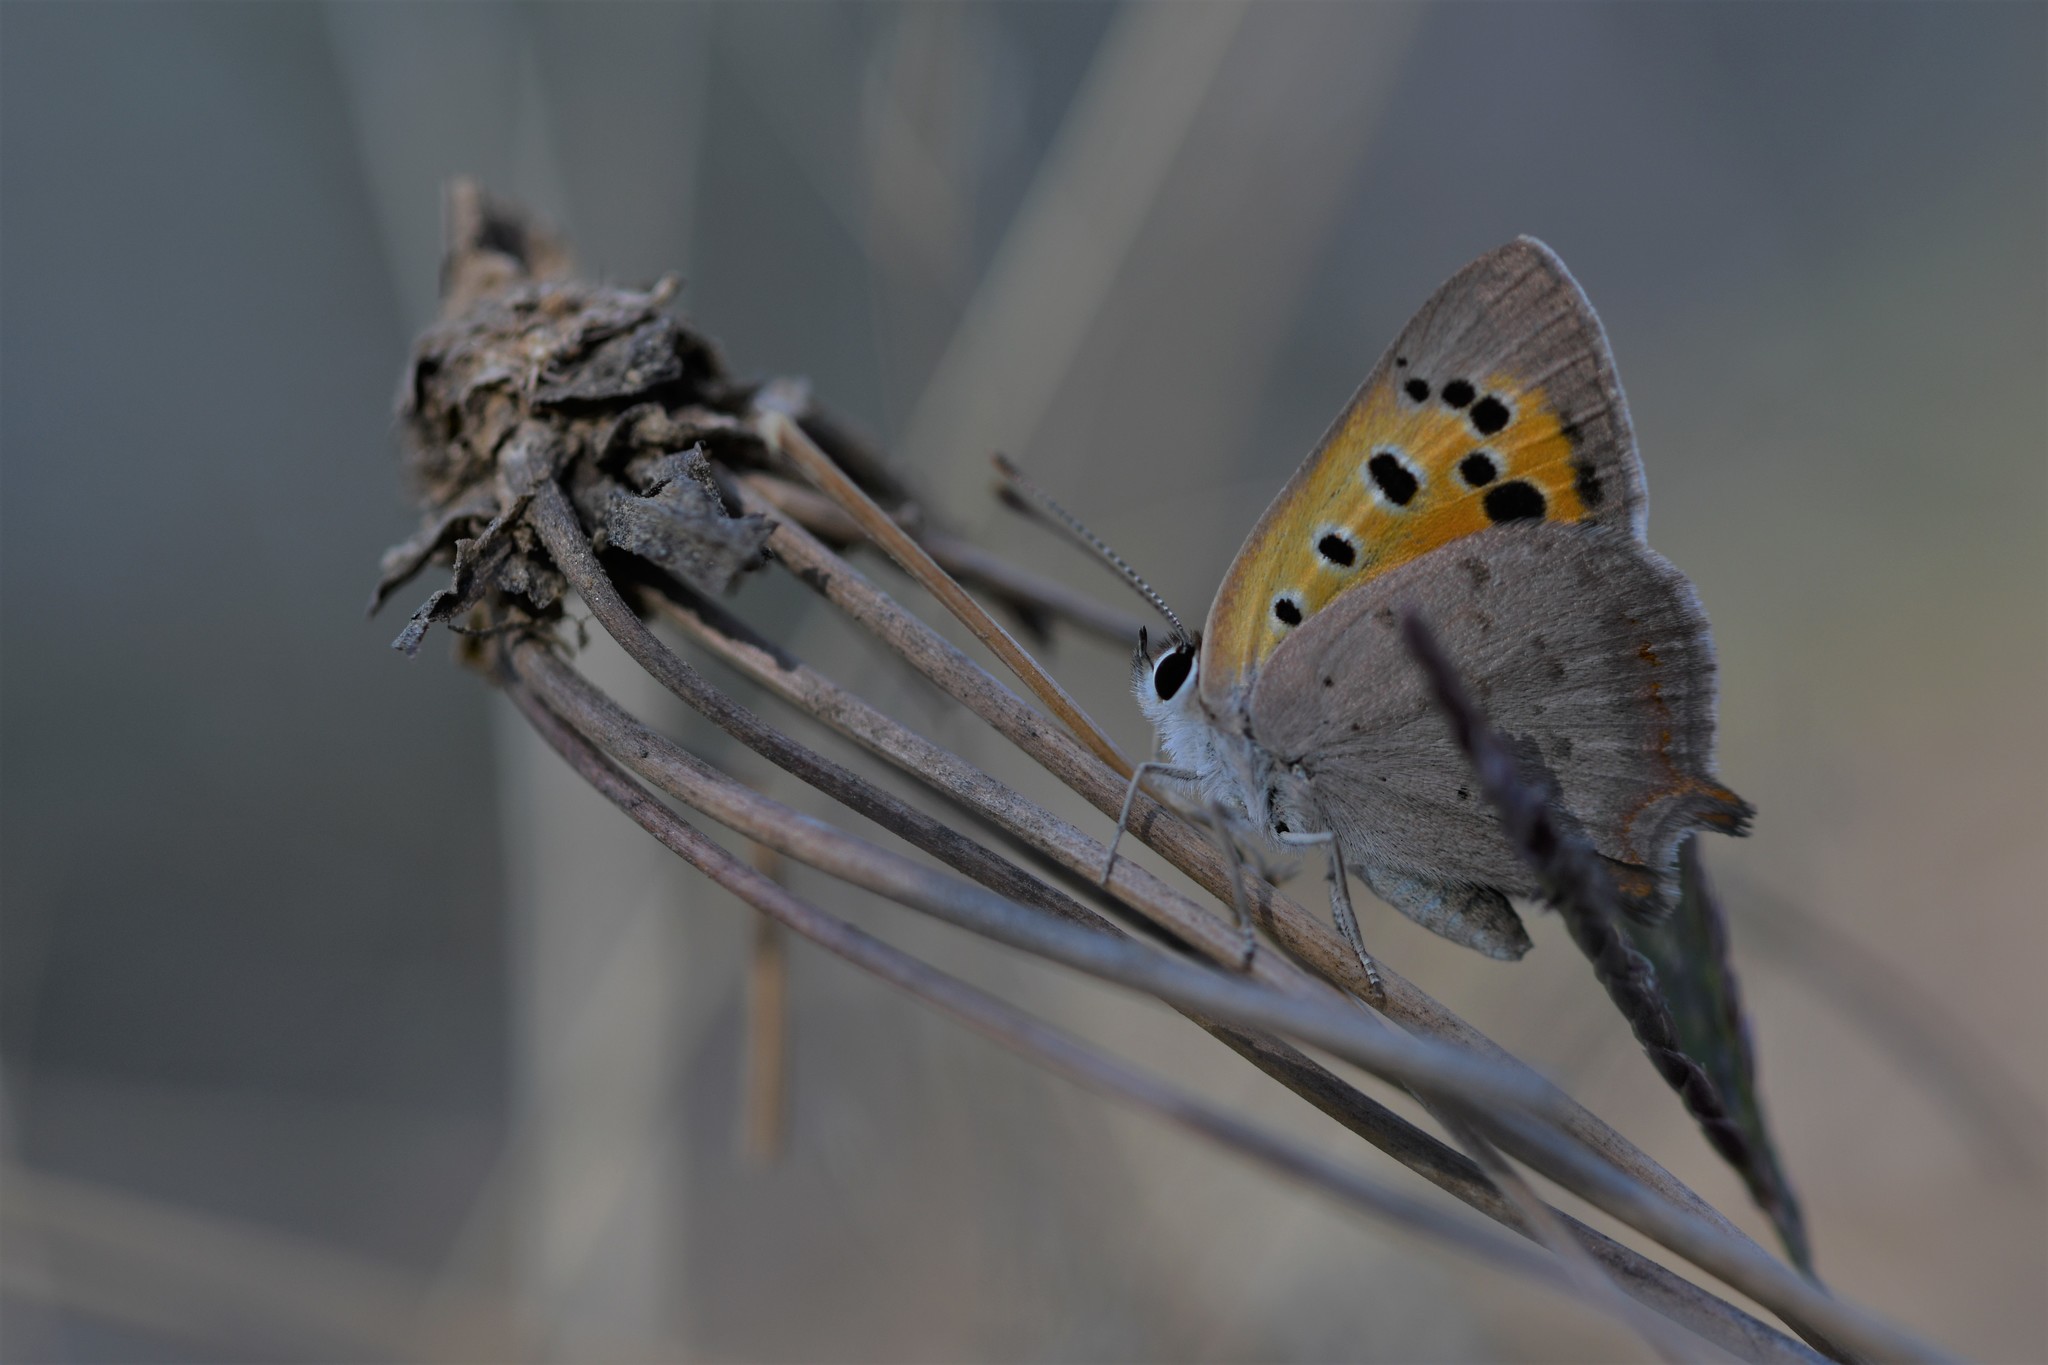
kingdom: Animalia
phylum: Arthropoda
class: Insecta
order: Lepidoptera
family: Lycaenidae
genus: Lycaena
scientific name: Lycaena phlaeas
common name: Small copper
